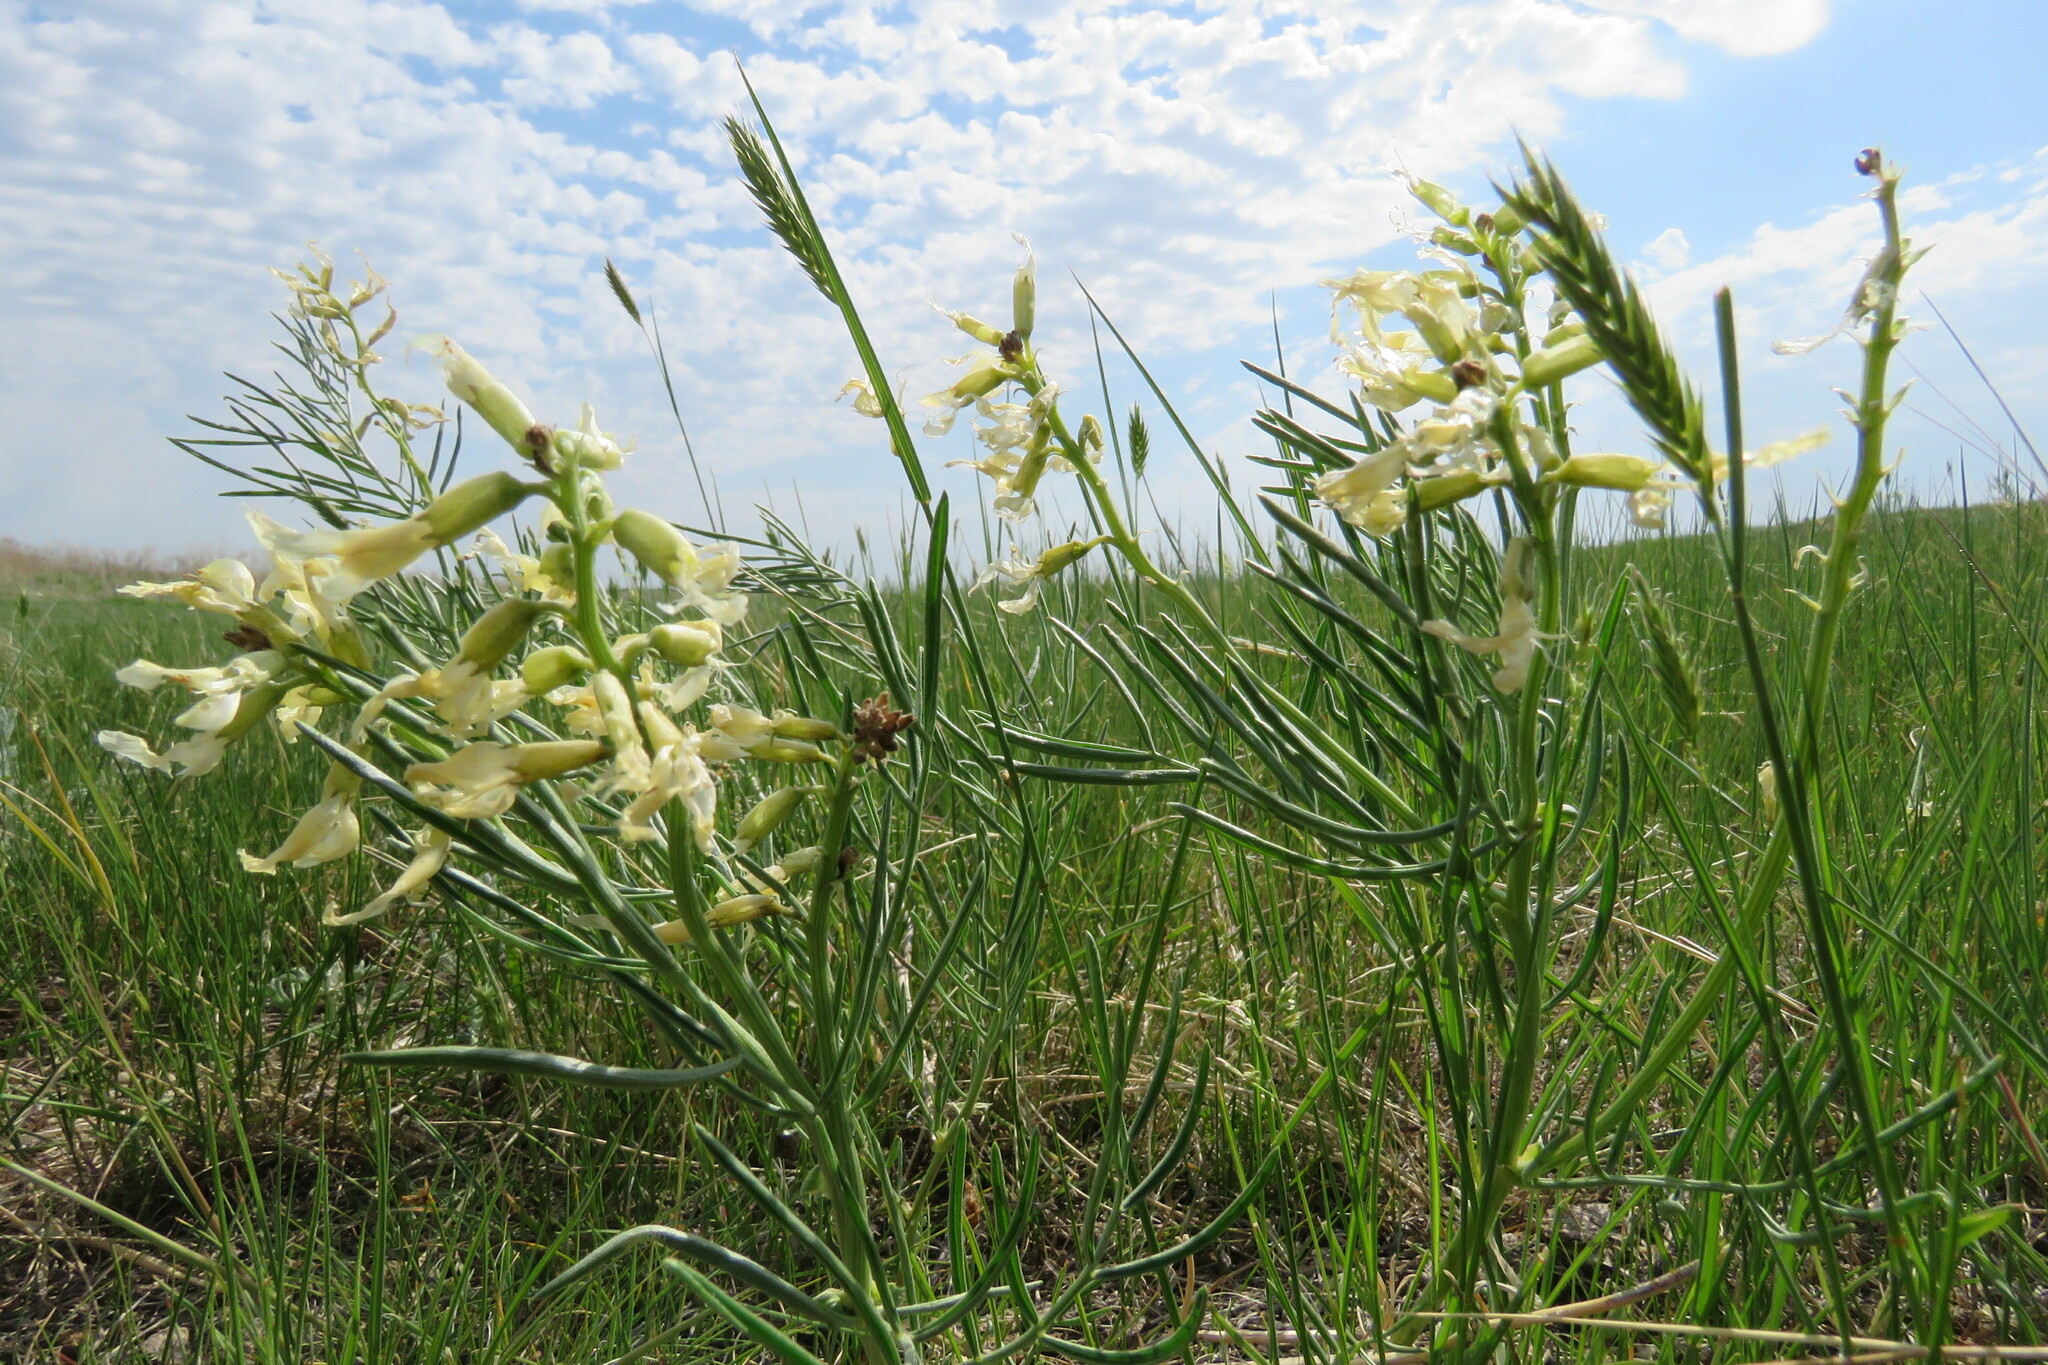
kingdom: Plantae
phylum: Tracheophyta
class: Magnoliopsida
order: Fabales
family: Fabaceae
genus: Astragalus
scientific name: Astragalus pectinatus
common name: Tine-leaf milk-vetch
